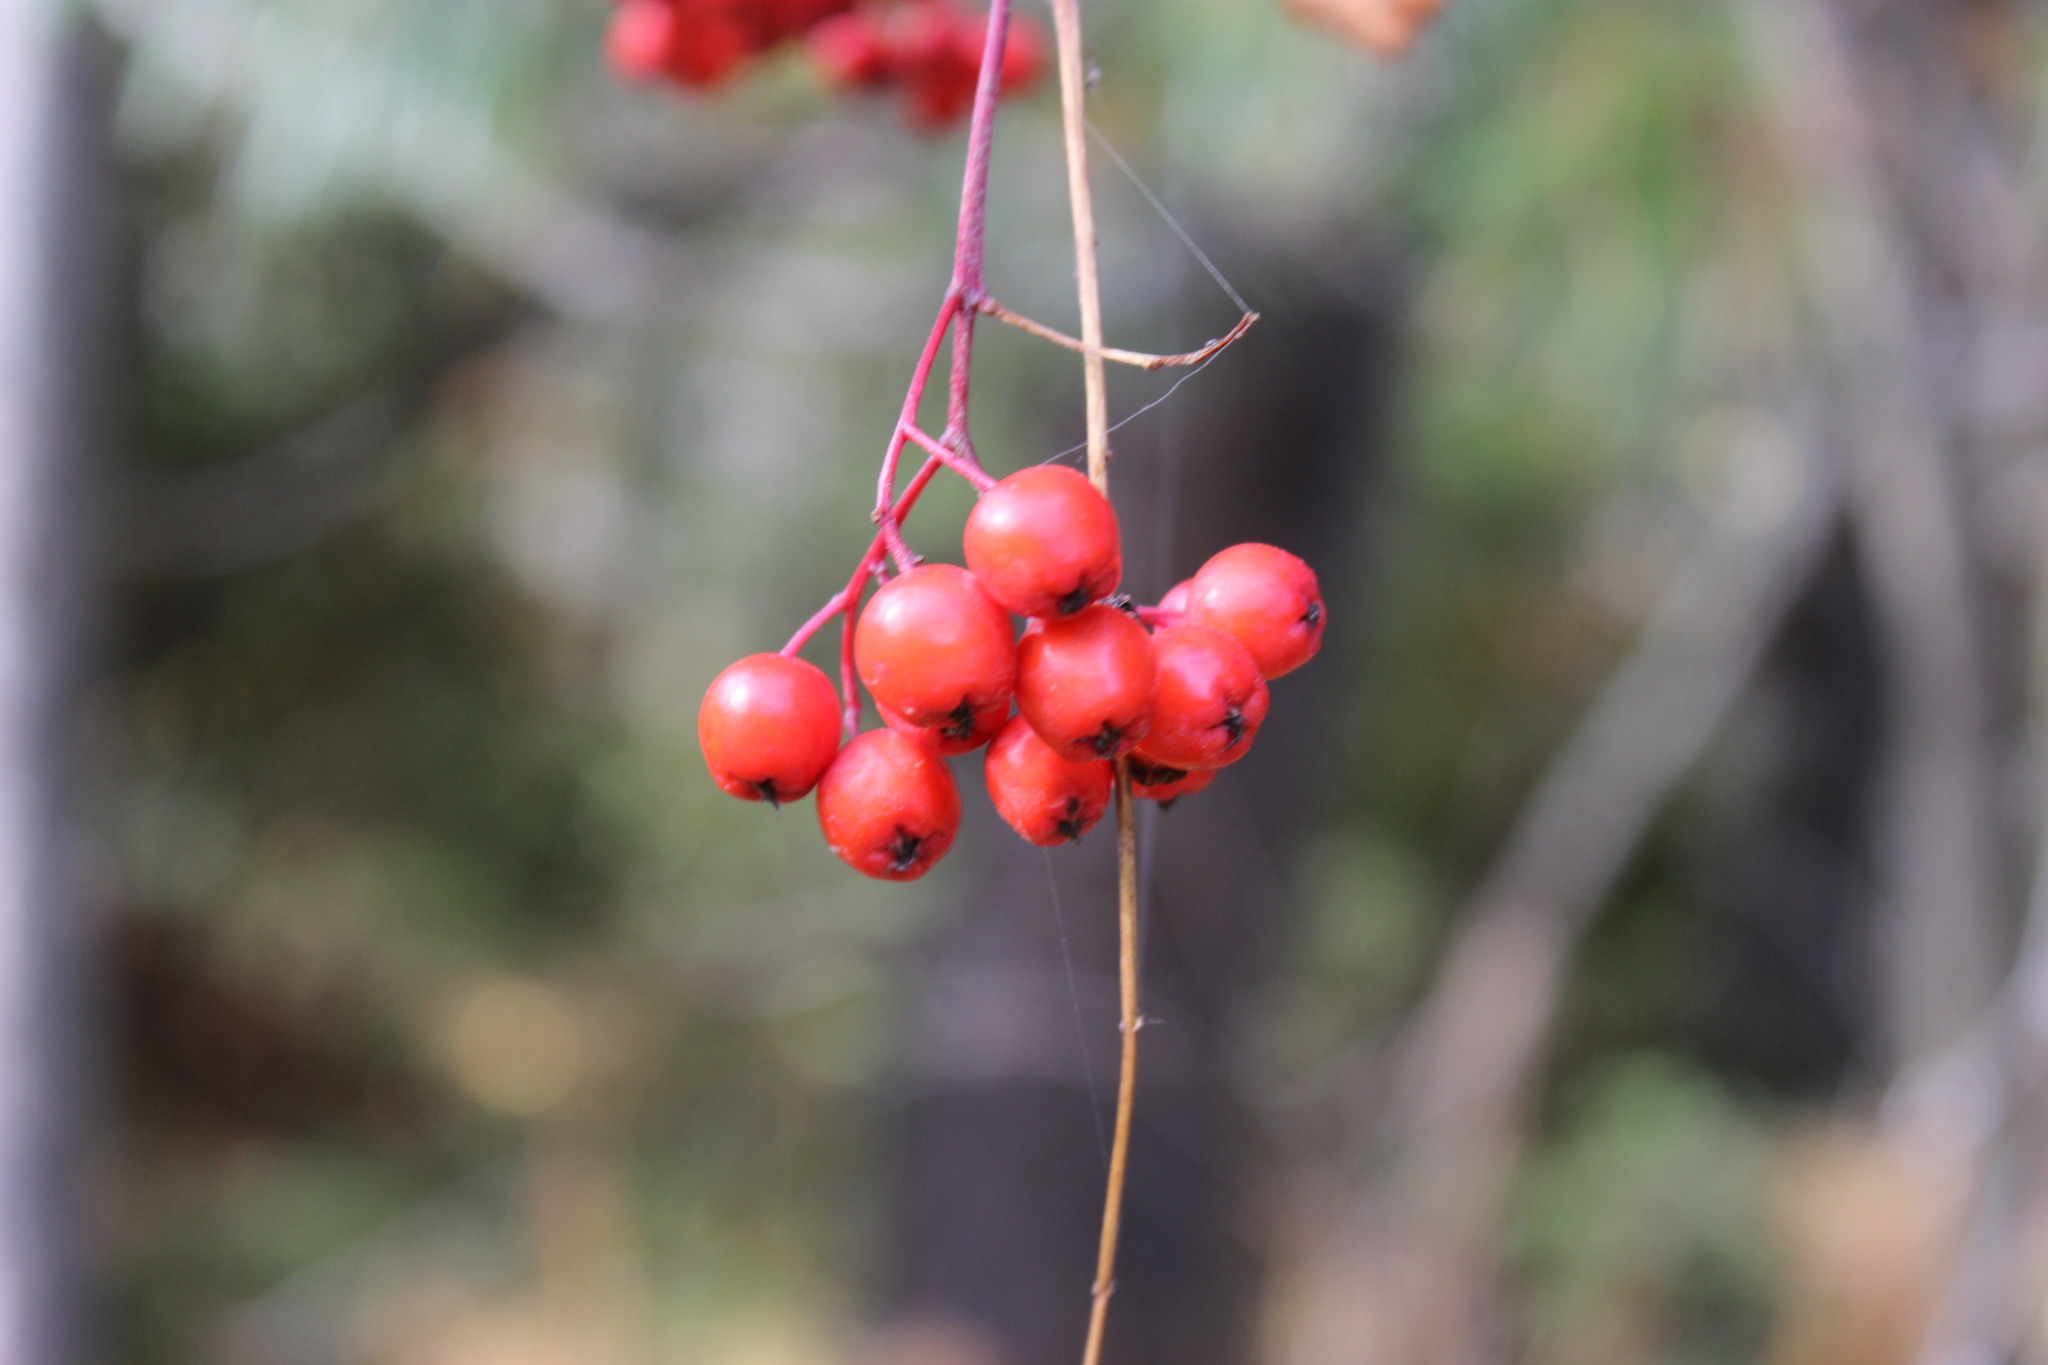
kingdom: Plantae
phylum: Tracheophyta
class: Magnoliopsida
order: Rosales
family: Rosaceae
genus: Sorbus
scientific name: Sorbus aucuparia
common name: Rowan
